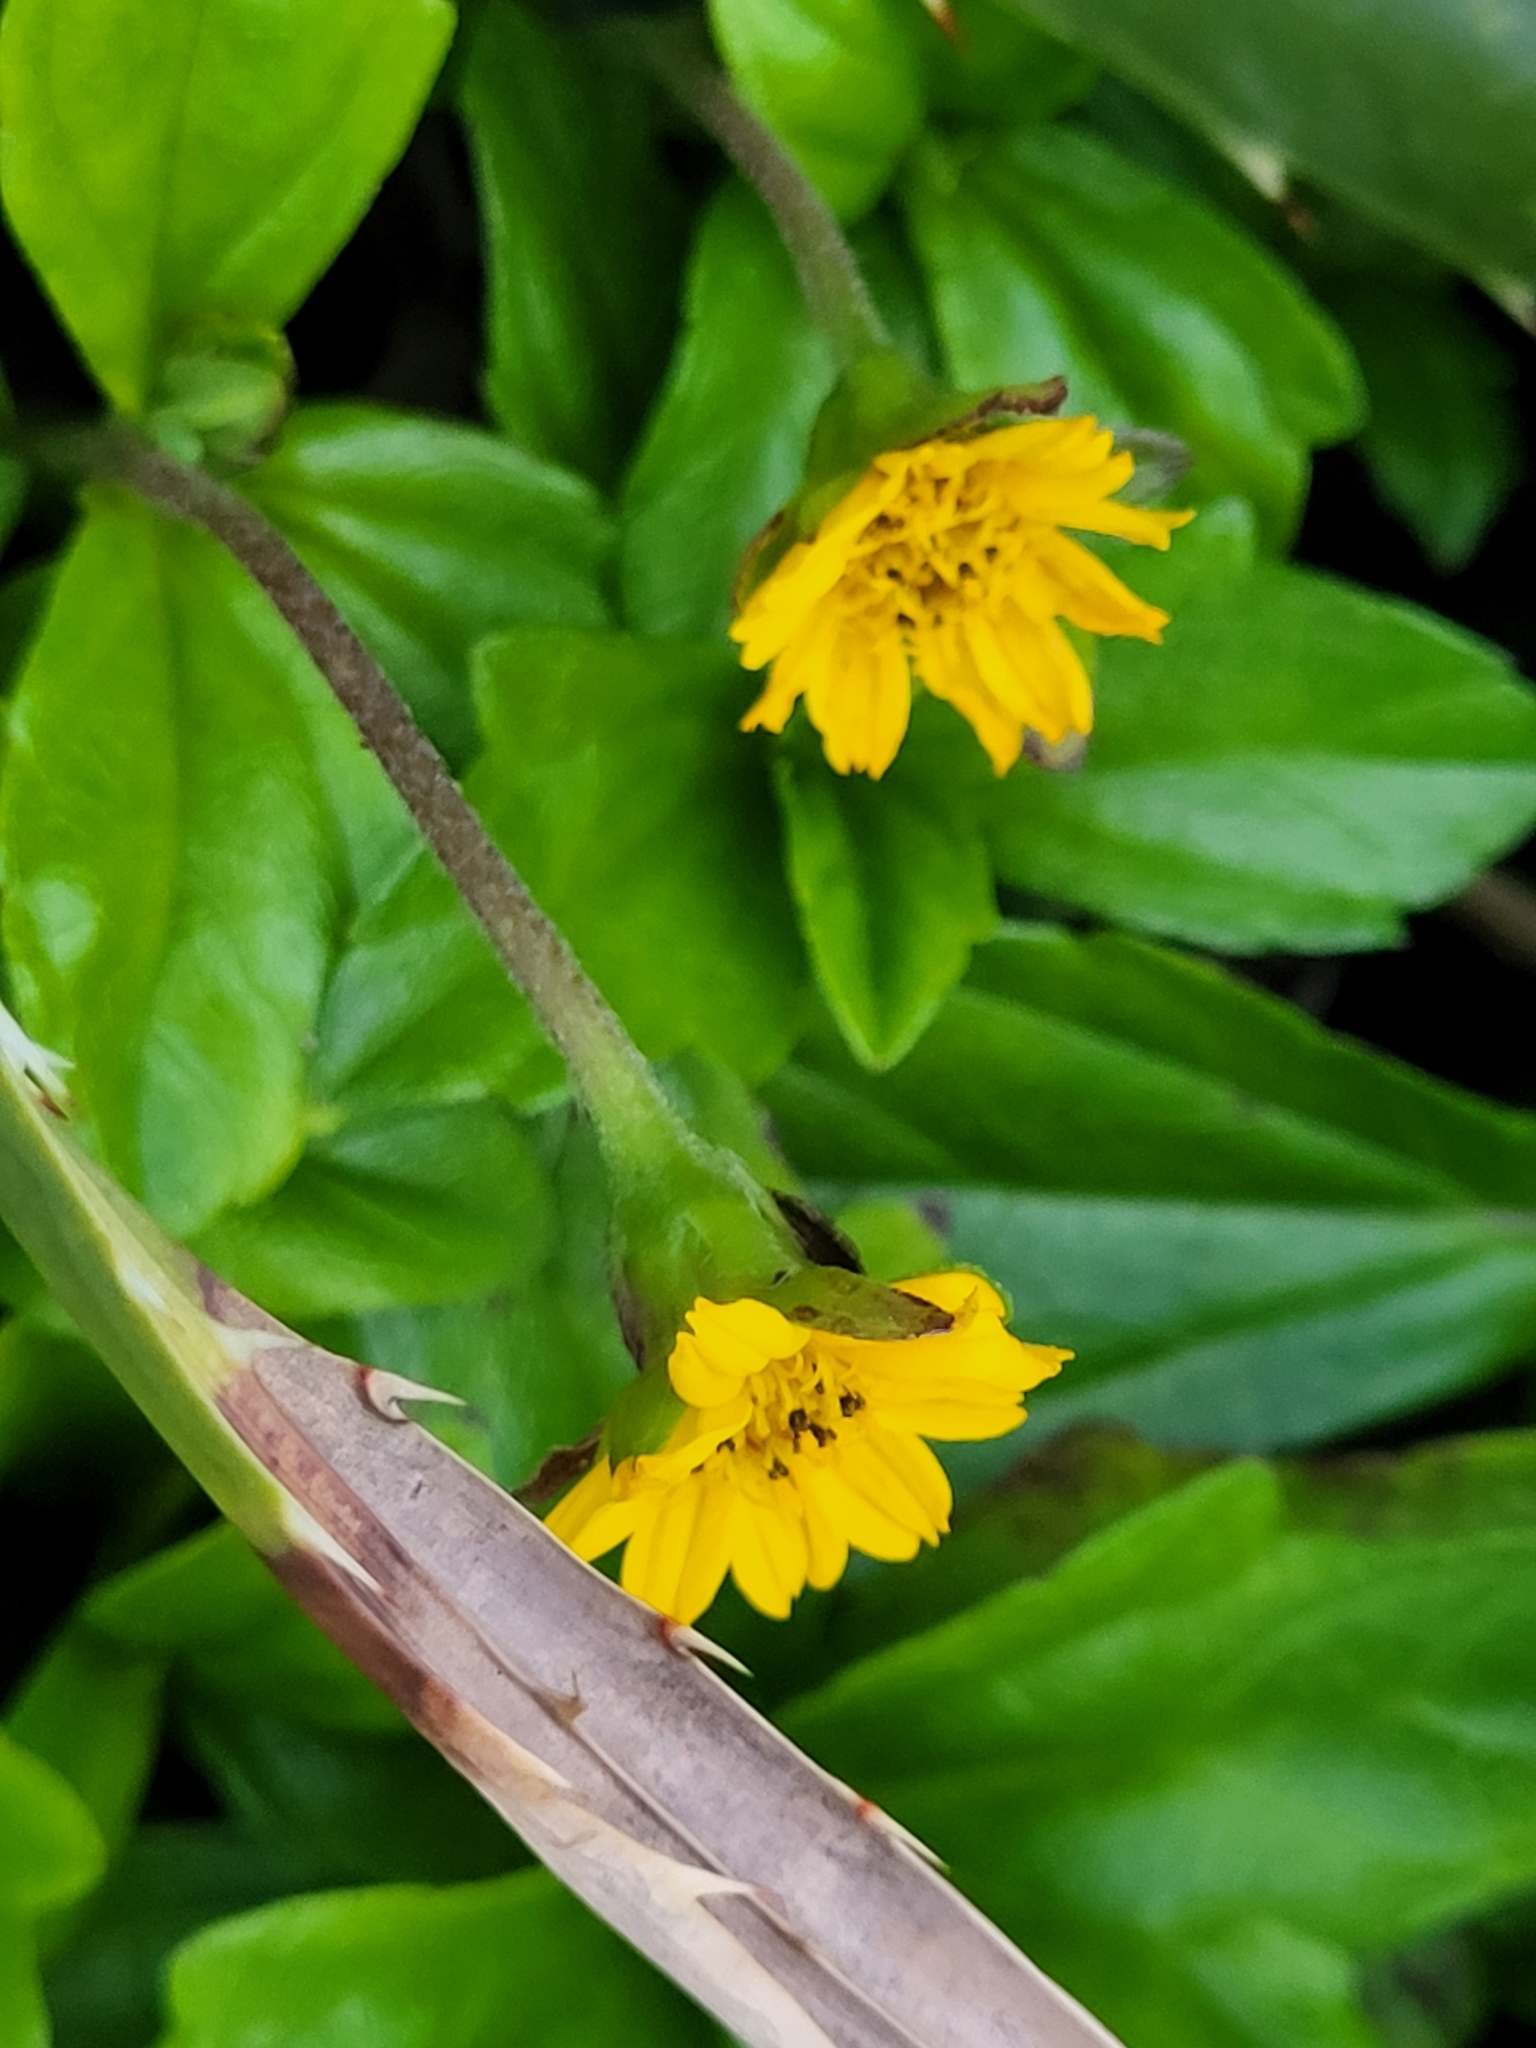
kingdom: Plantae
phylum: Tracheophyta
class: Magnoliopsida
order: Asterales
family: Asteraceae
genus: Sphagneticola
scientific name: Sphagneticola trilobata
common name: Bay biscayne creeping-oxeye
